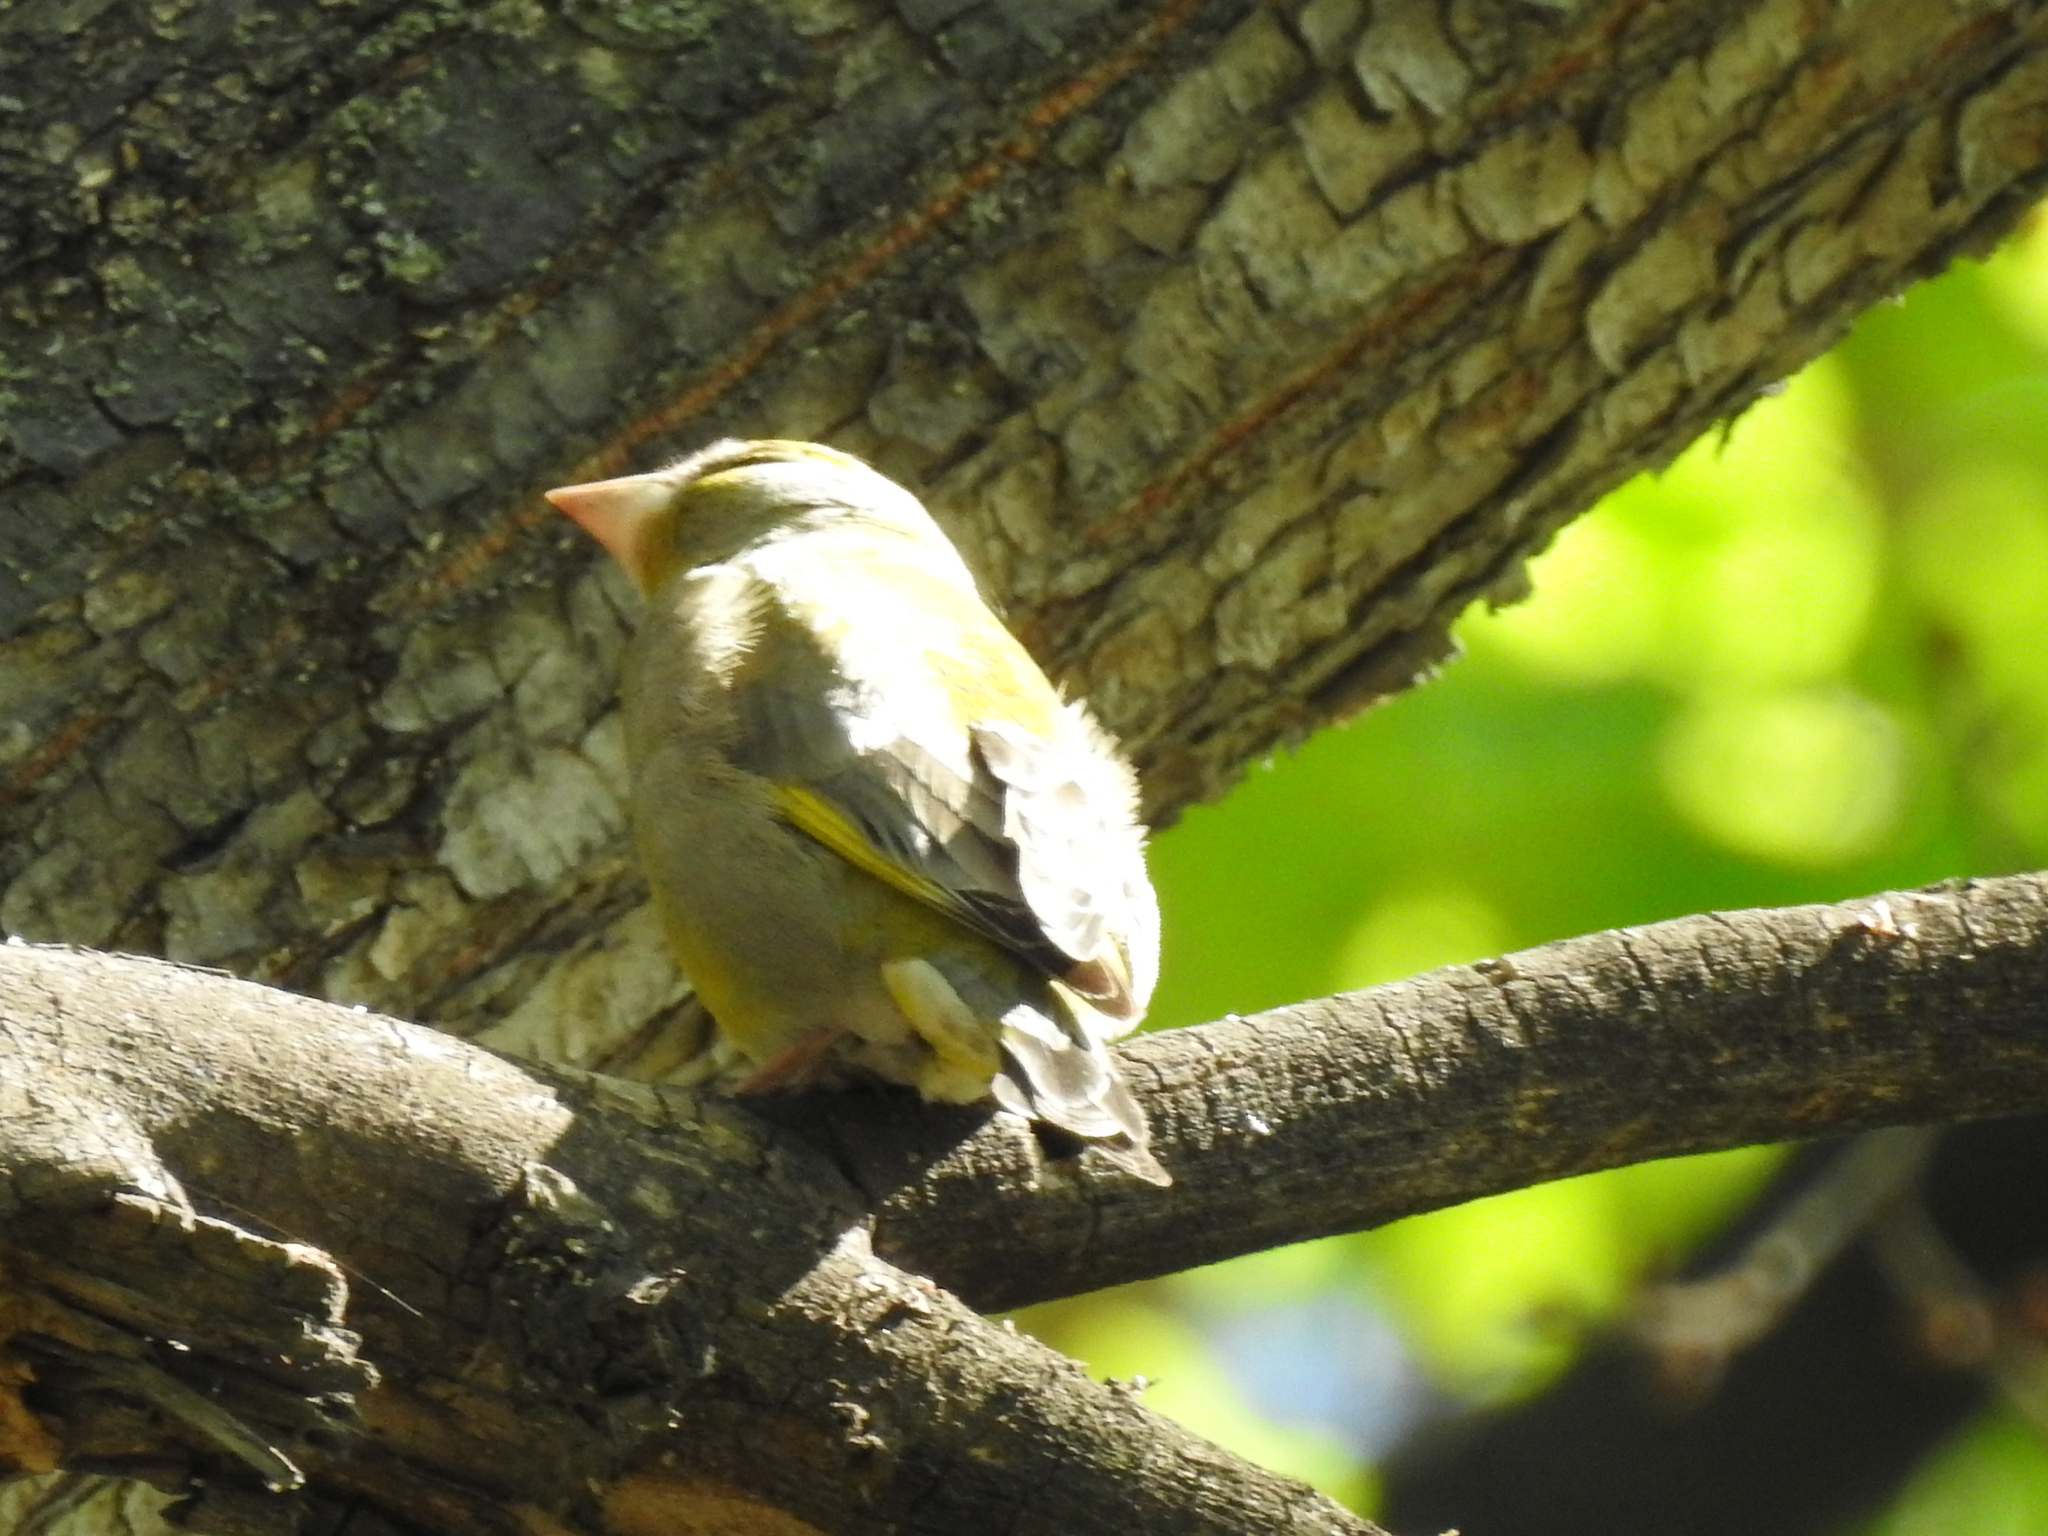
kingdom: Plantae
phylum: Tracheophyta
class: Liliopsida
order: Poales
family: Poaceae
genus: Chloris
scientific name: Chloris chloris
